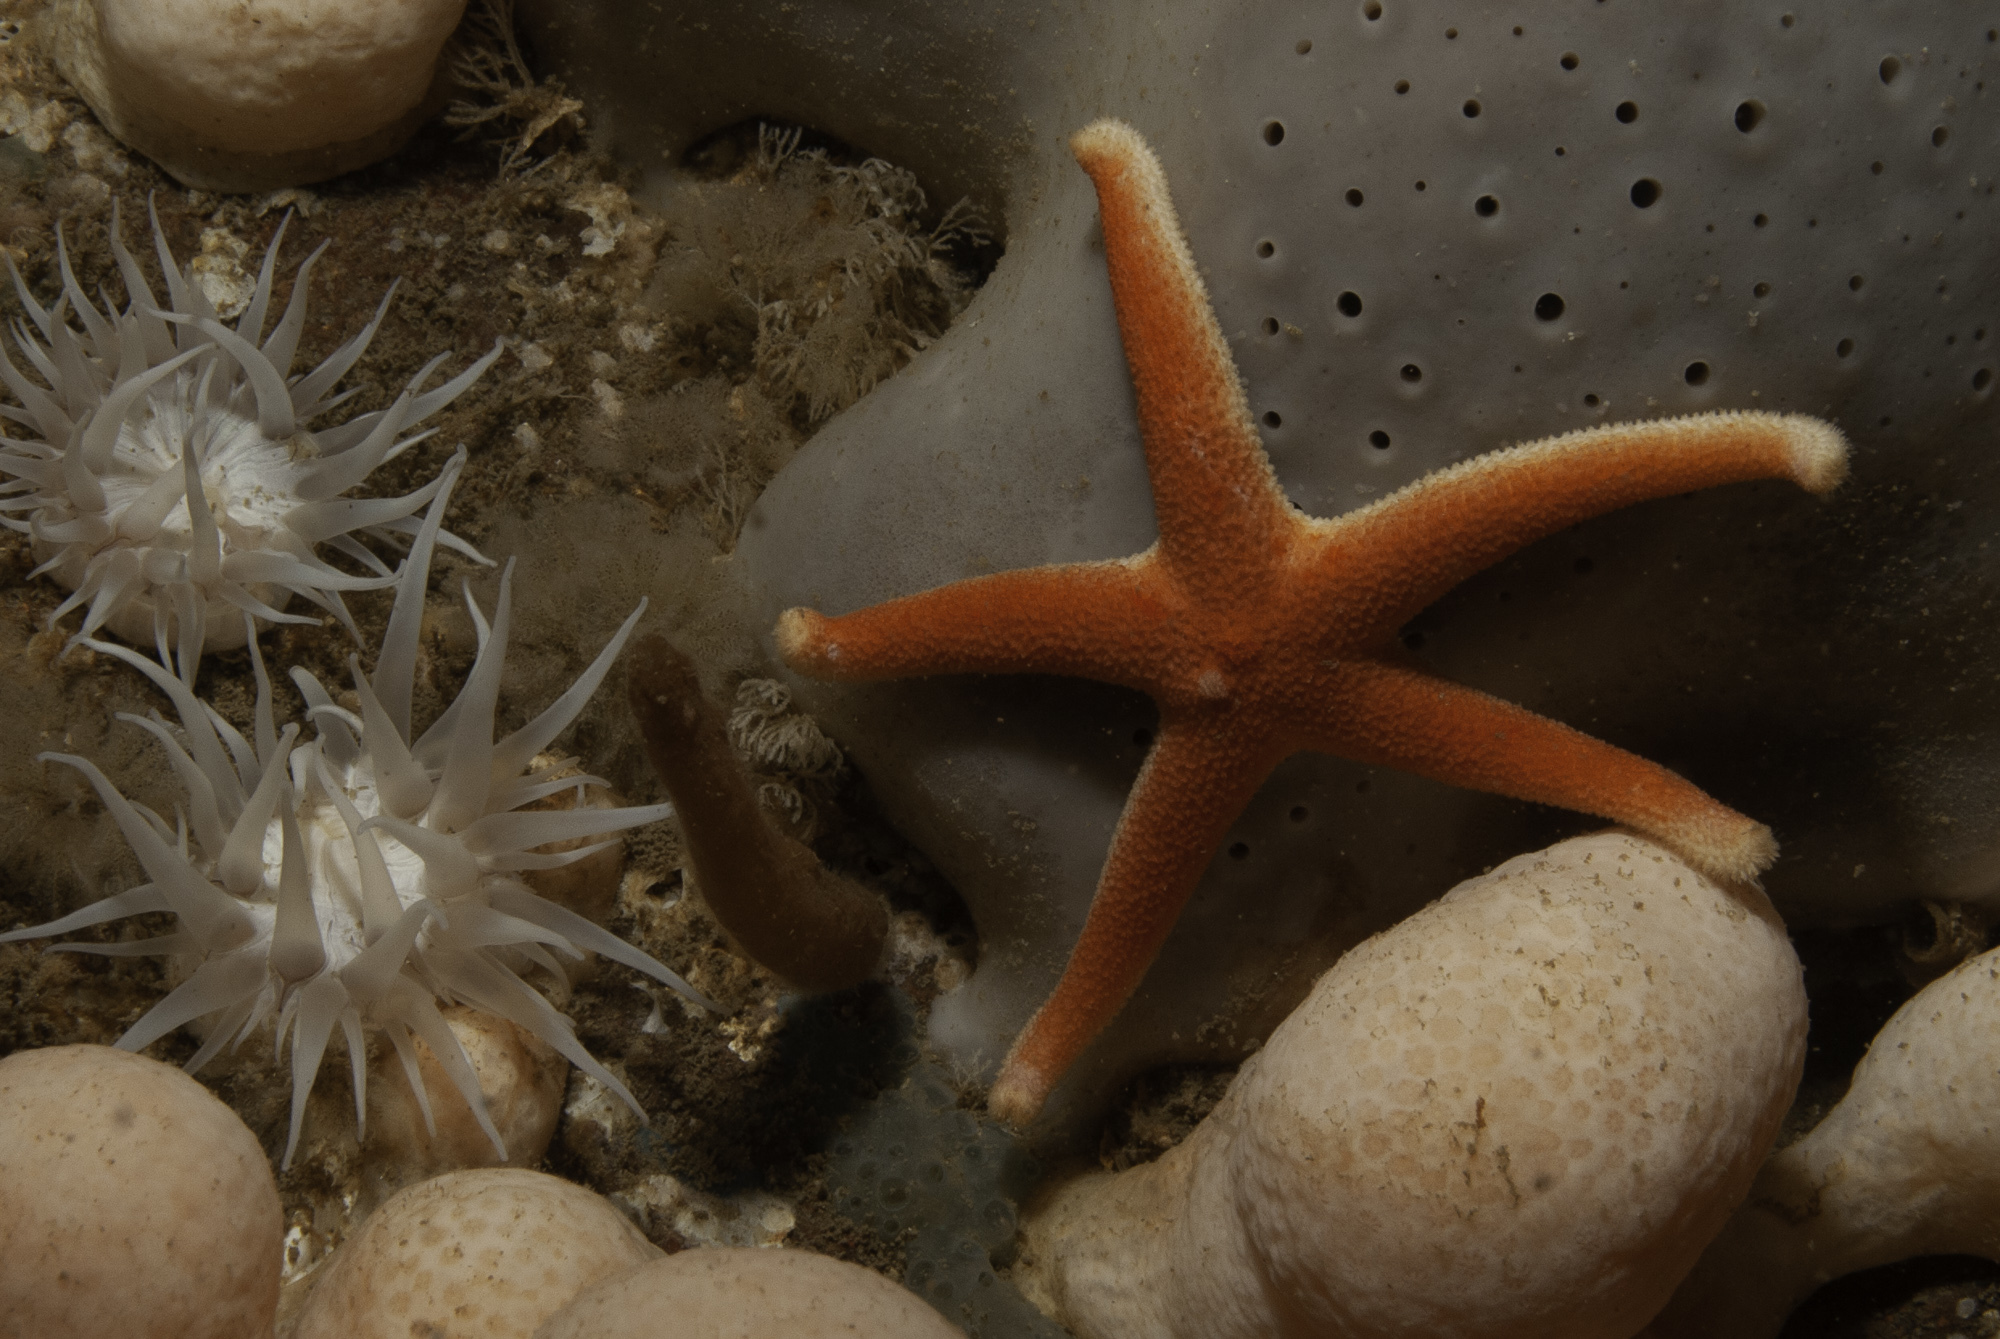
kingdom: Animalia
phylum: Echinodermata
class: Asteroidea
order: Spinulosida
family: Echinasteridae
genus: Henricia
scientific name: Henricia sanguinolenta
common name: Blood star
